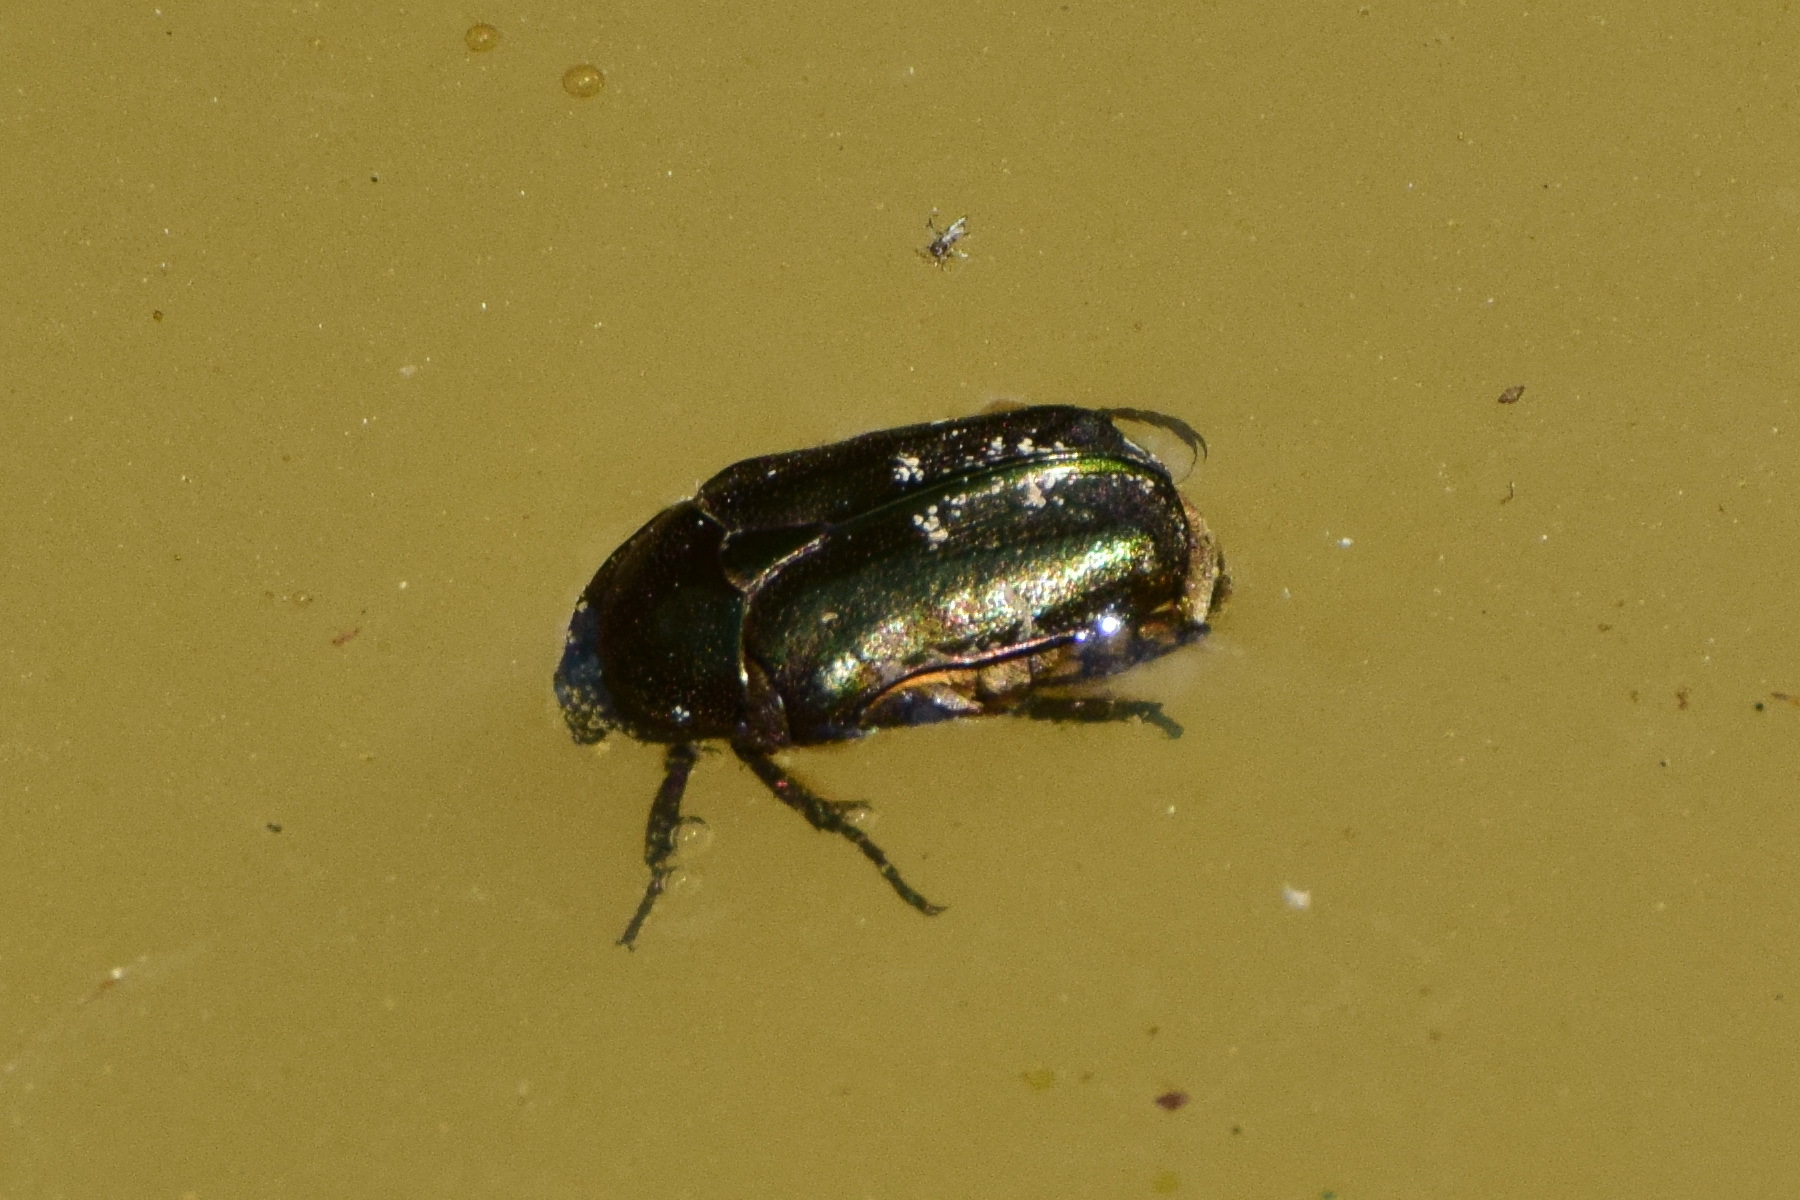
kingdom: Animalia
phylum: Arthropoda
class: Insecta
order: Coleoptera
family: Scarabaeidae
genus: Protaetia
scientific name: Protaetia cuprea
